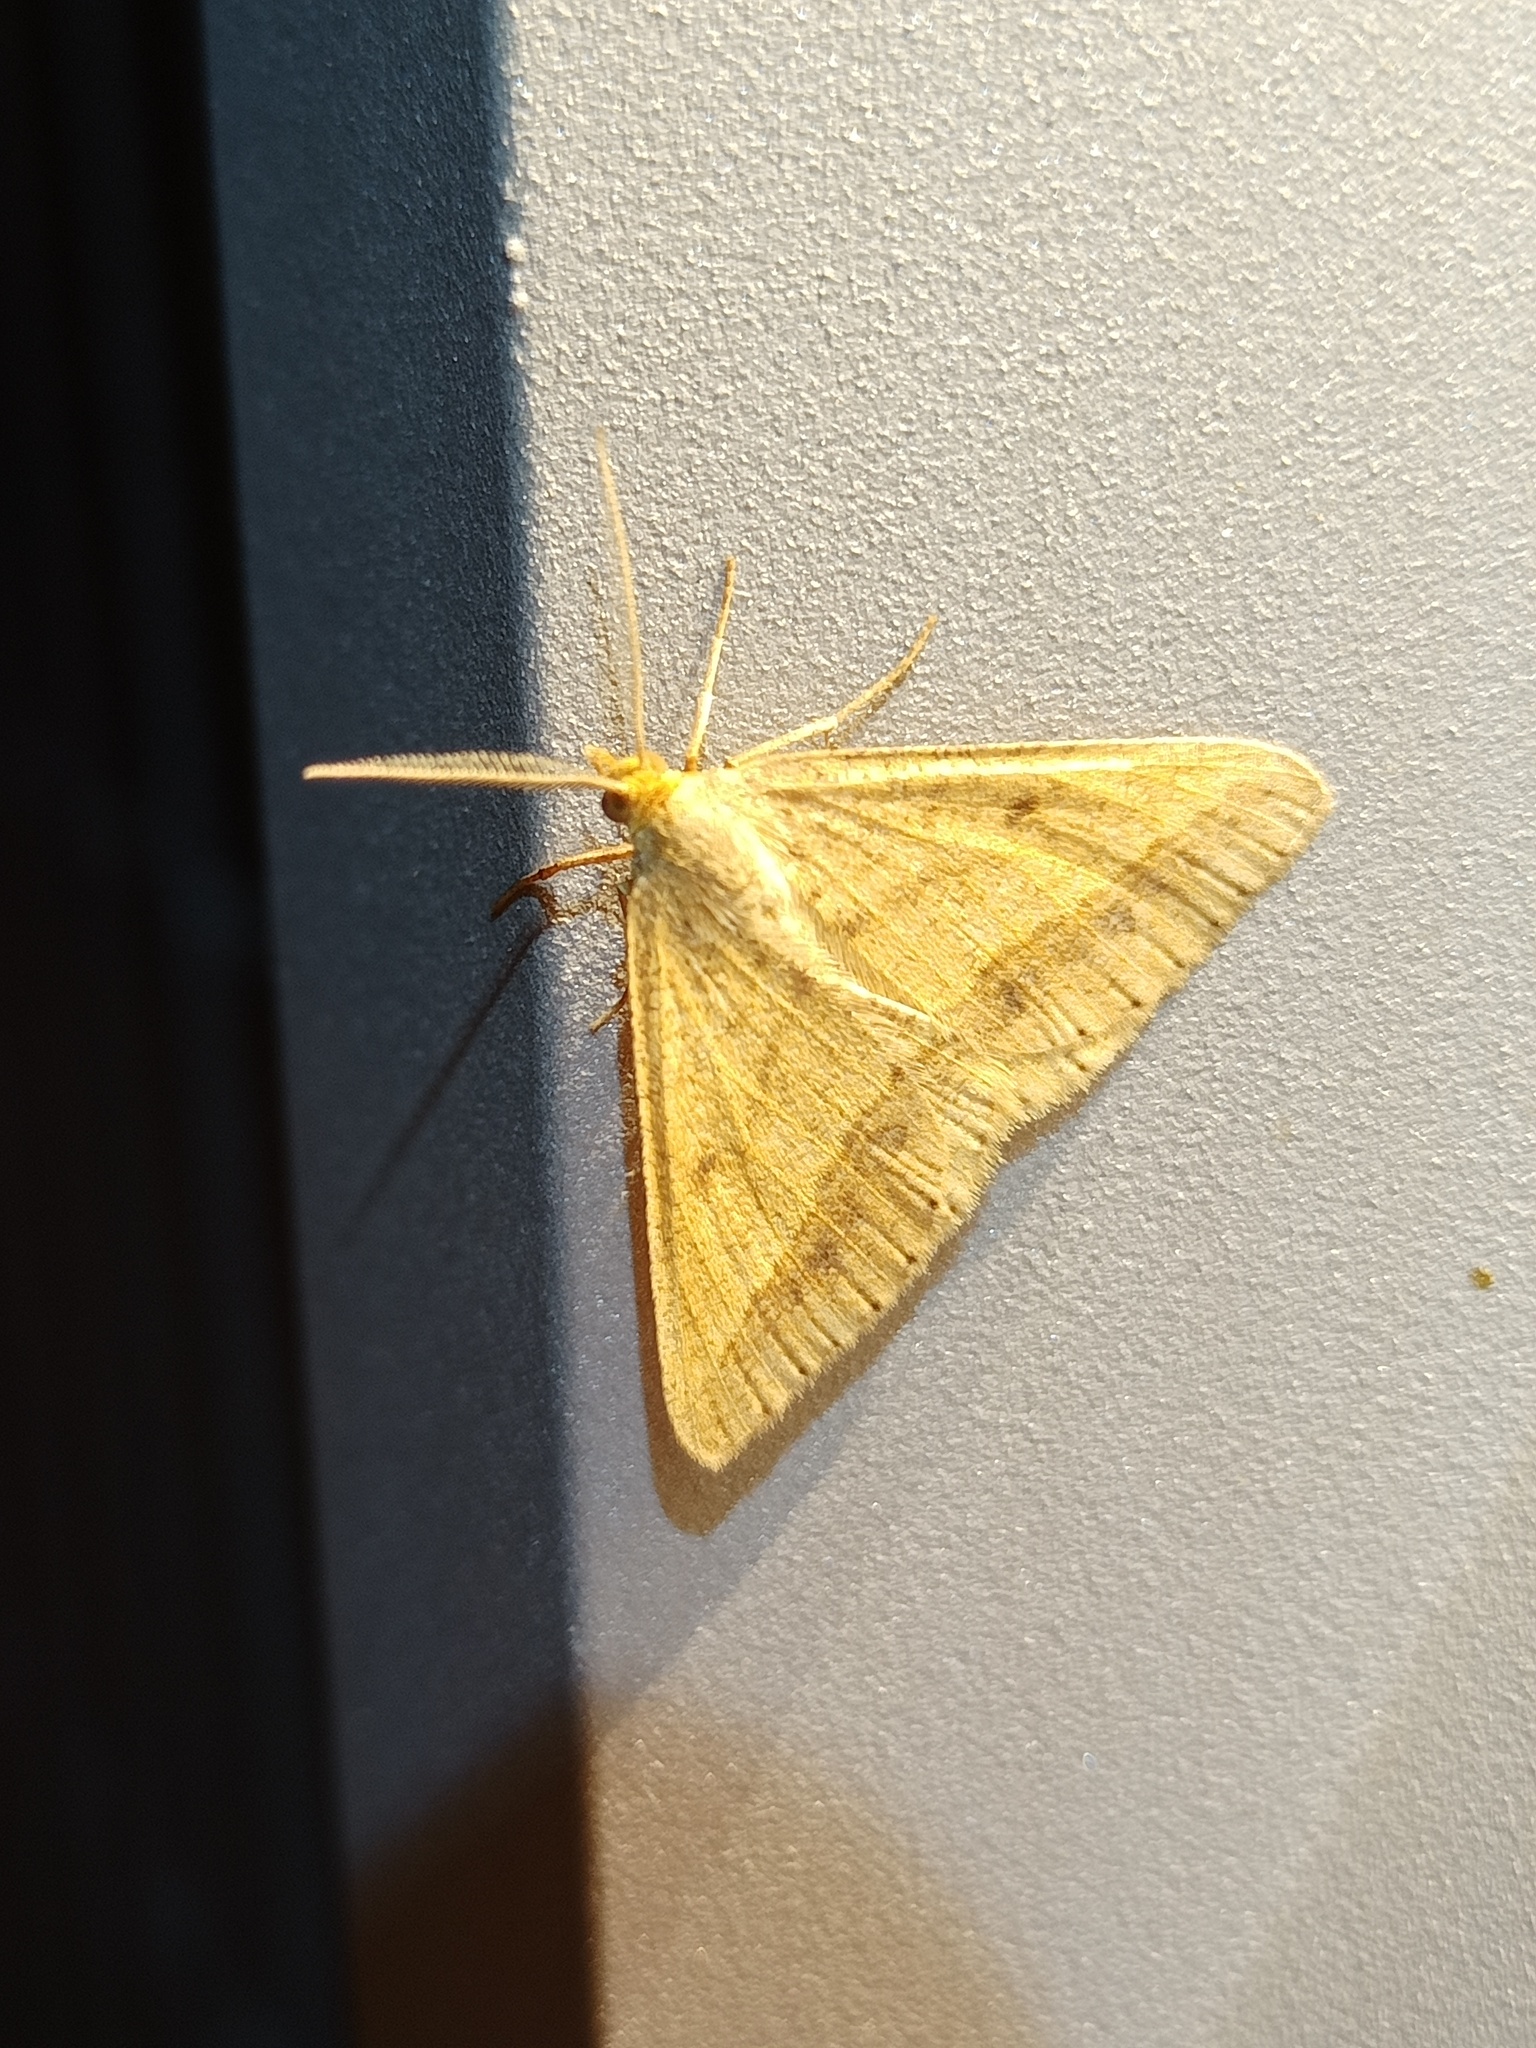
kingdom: Animalia
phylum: Arthropoda
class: Insecta
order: Lepidoptera
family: Geometridae
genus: Tephrina
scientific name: Tephrina arenacearia
